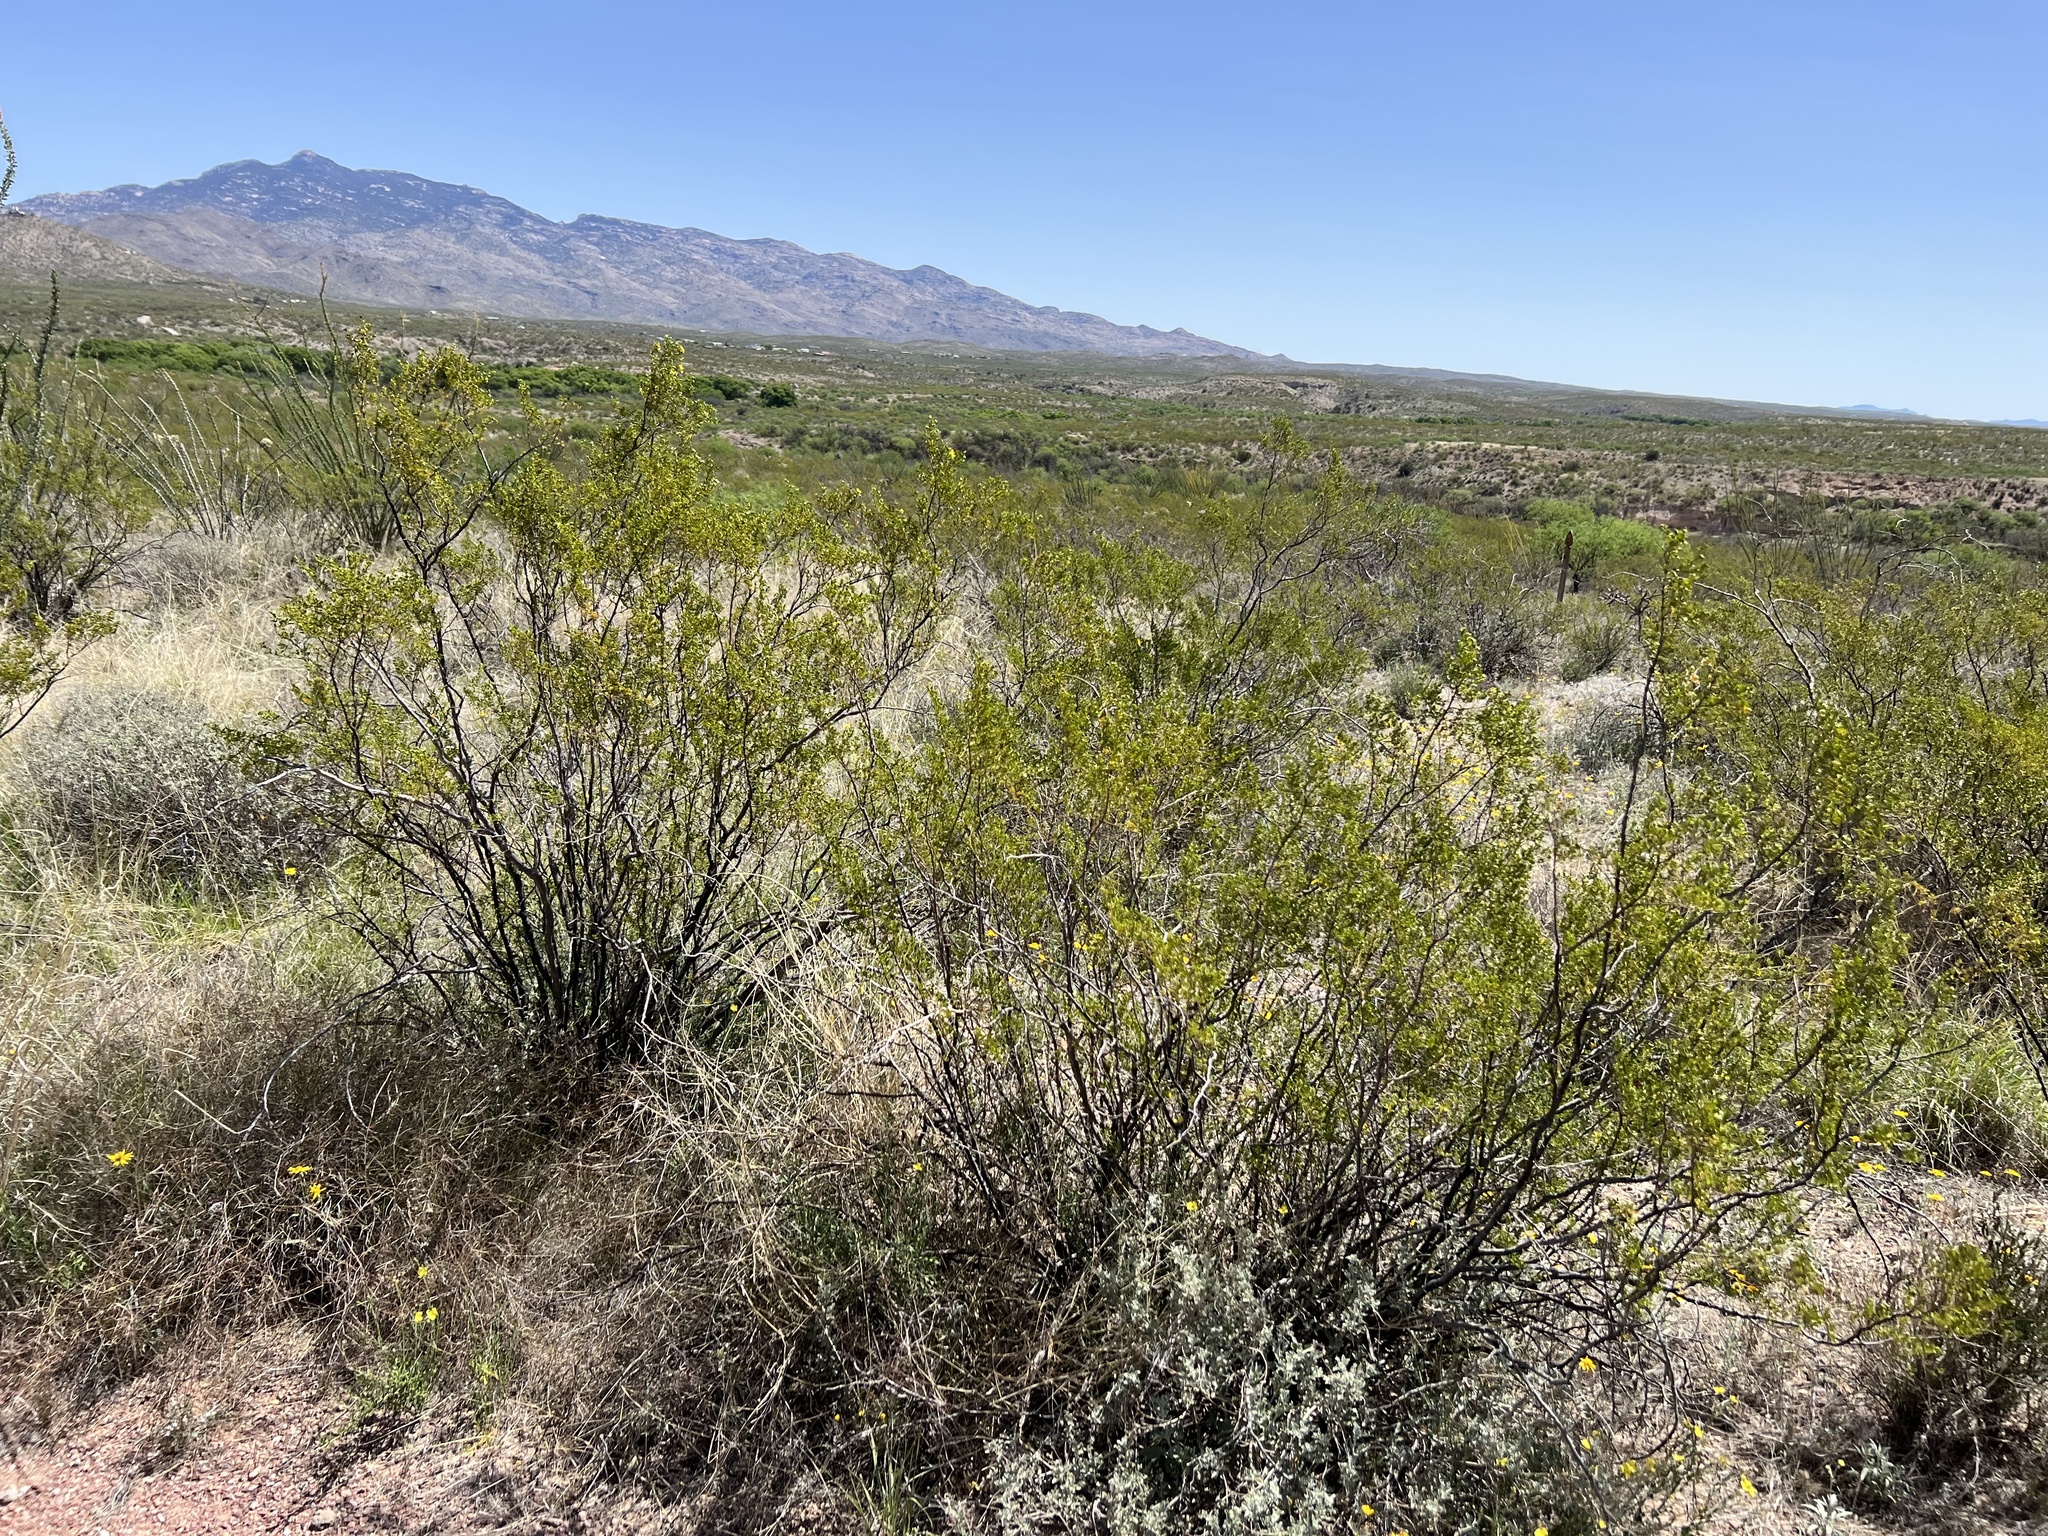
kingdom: Plantae
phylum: Tracheophyta
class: Magnoliopsida
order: Zygophyllales
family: Zygophyllaceae
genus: Larrea
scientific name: Larrea tridentata
